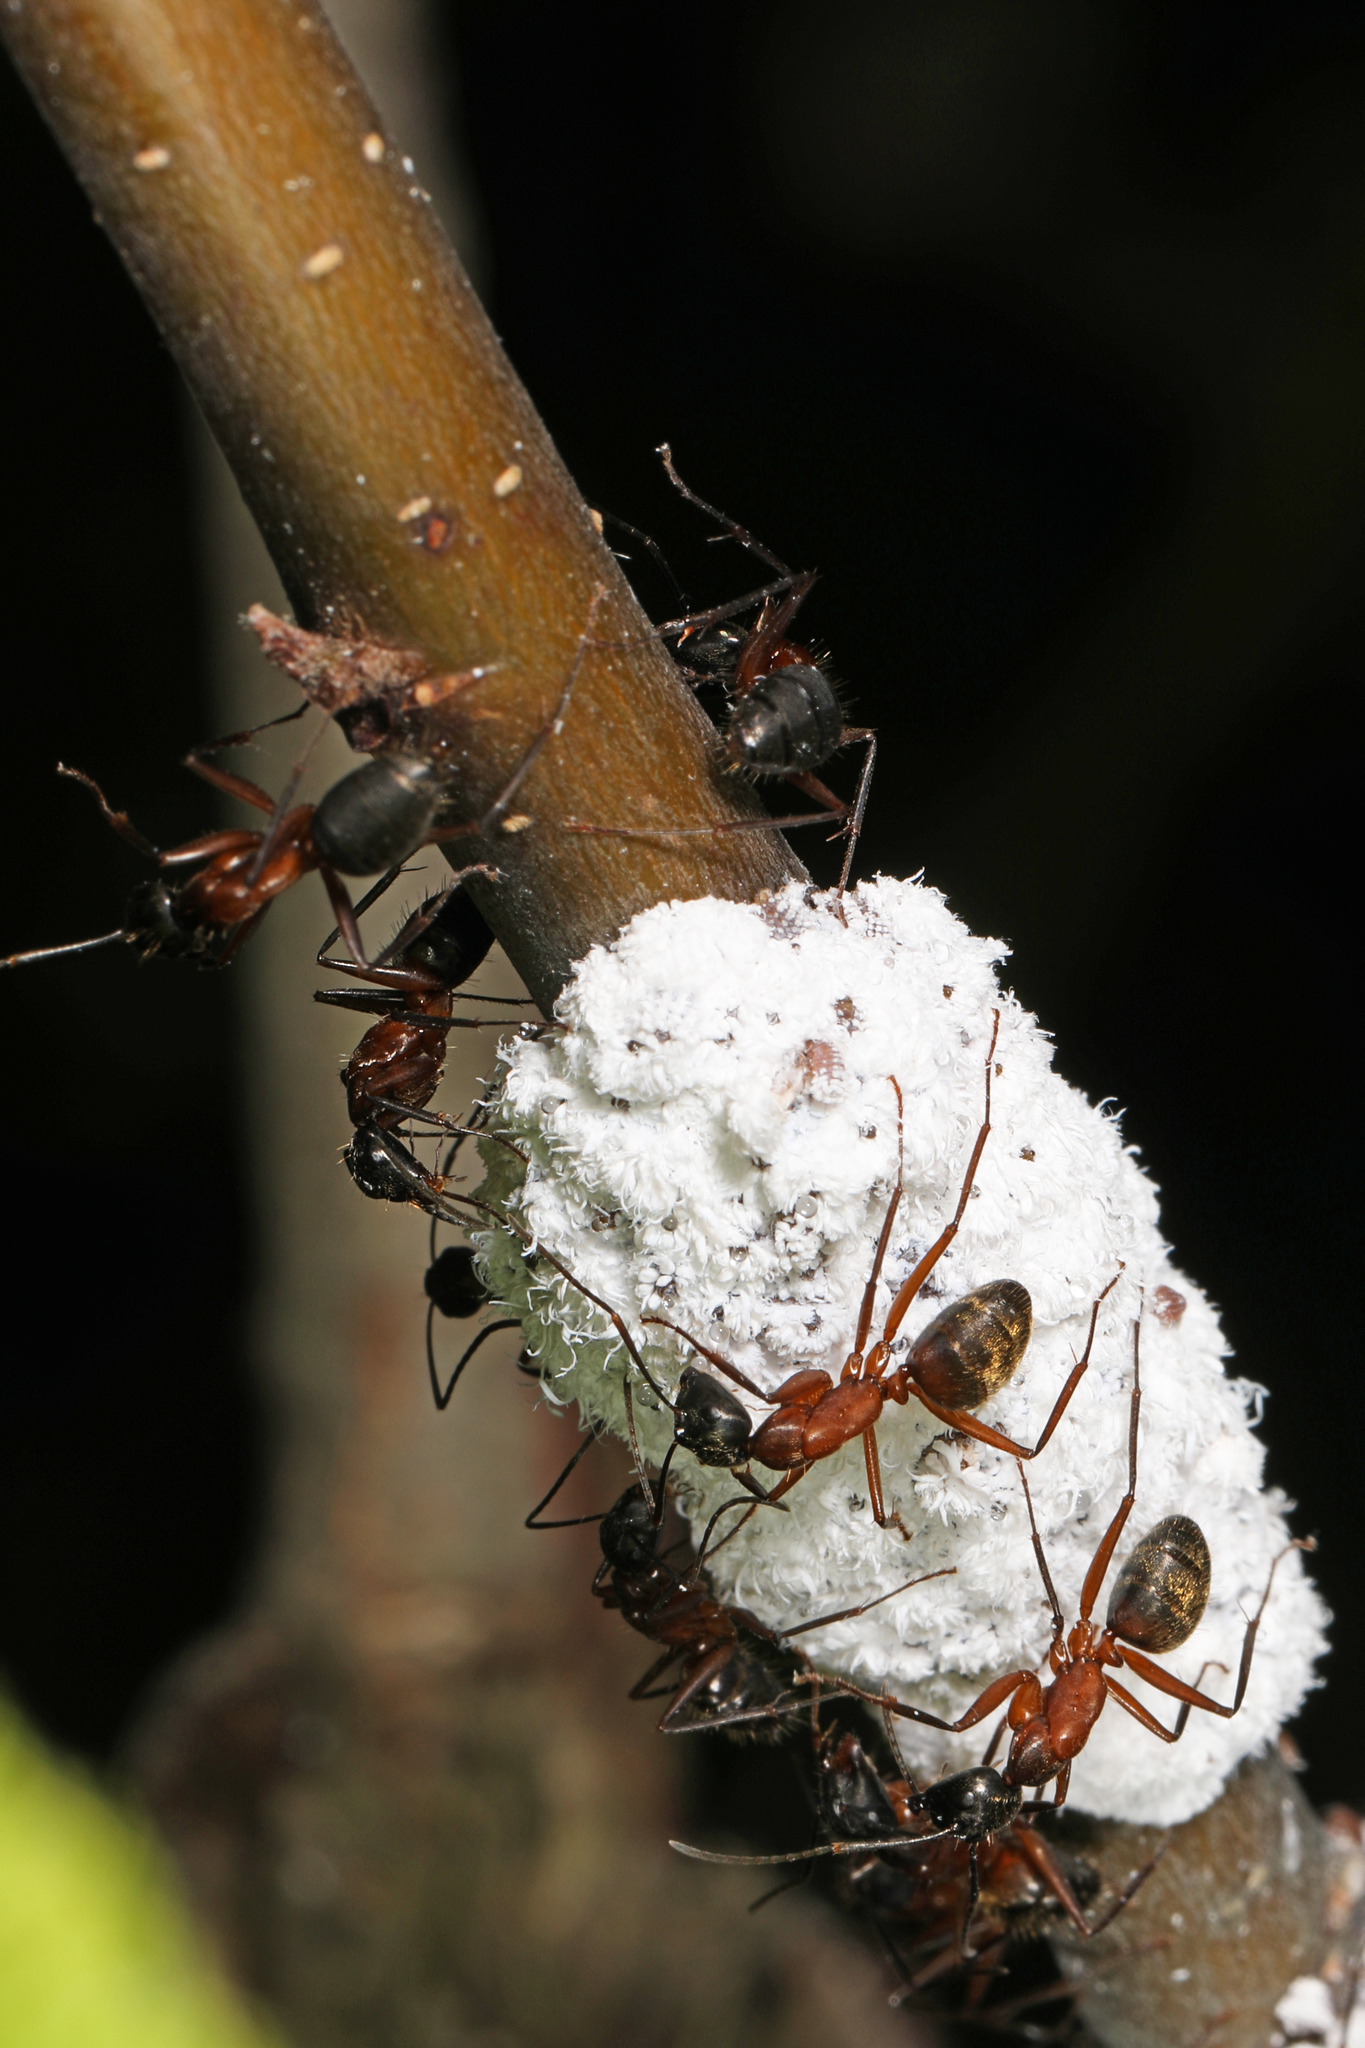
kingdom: Animalia
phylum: Arthropoda
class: Insecta
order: Hymenoptera
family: Formicidae
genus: Camponotus
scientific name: Camponotus chromaiodes
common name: Red carpenter ant
